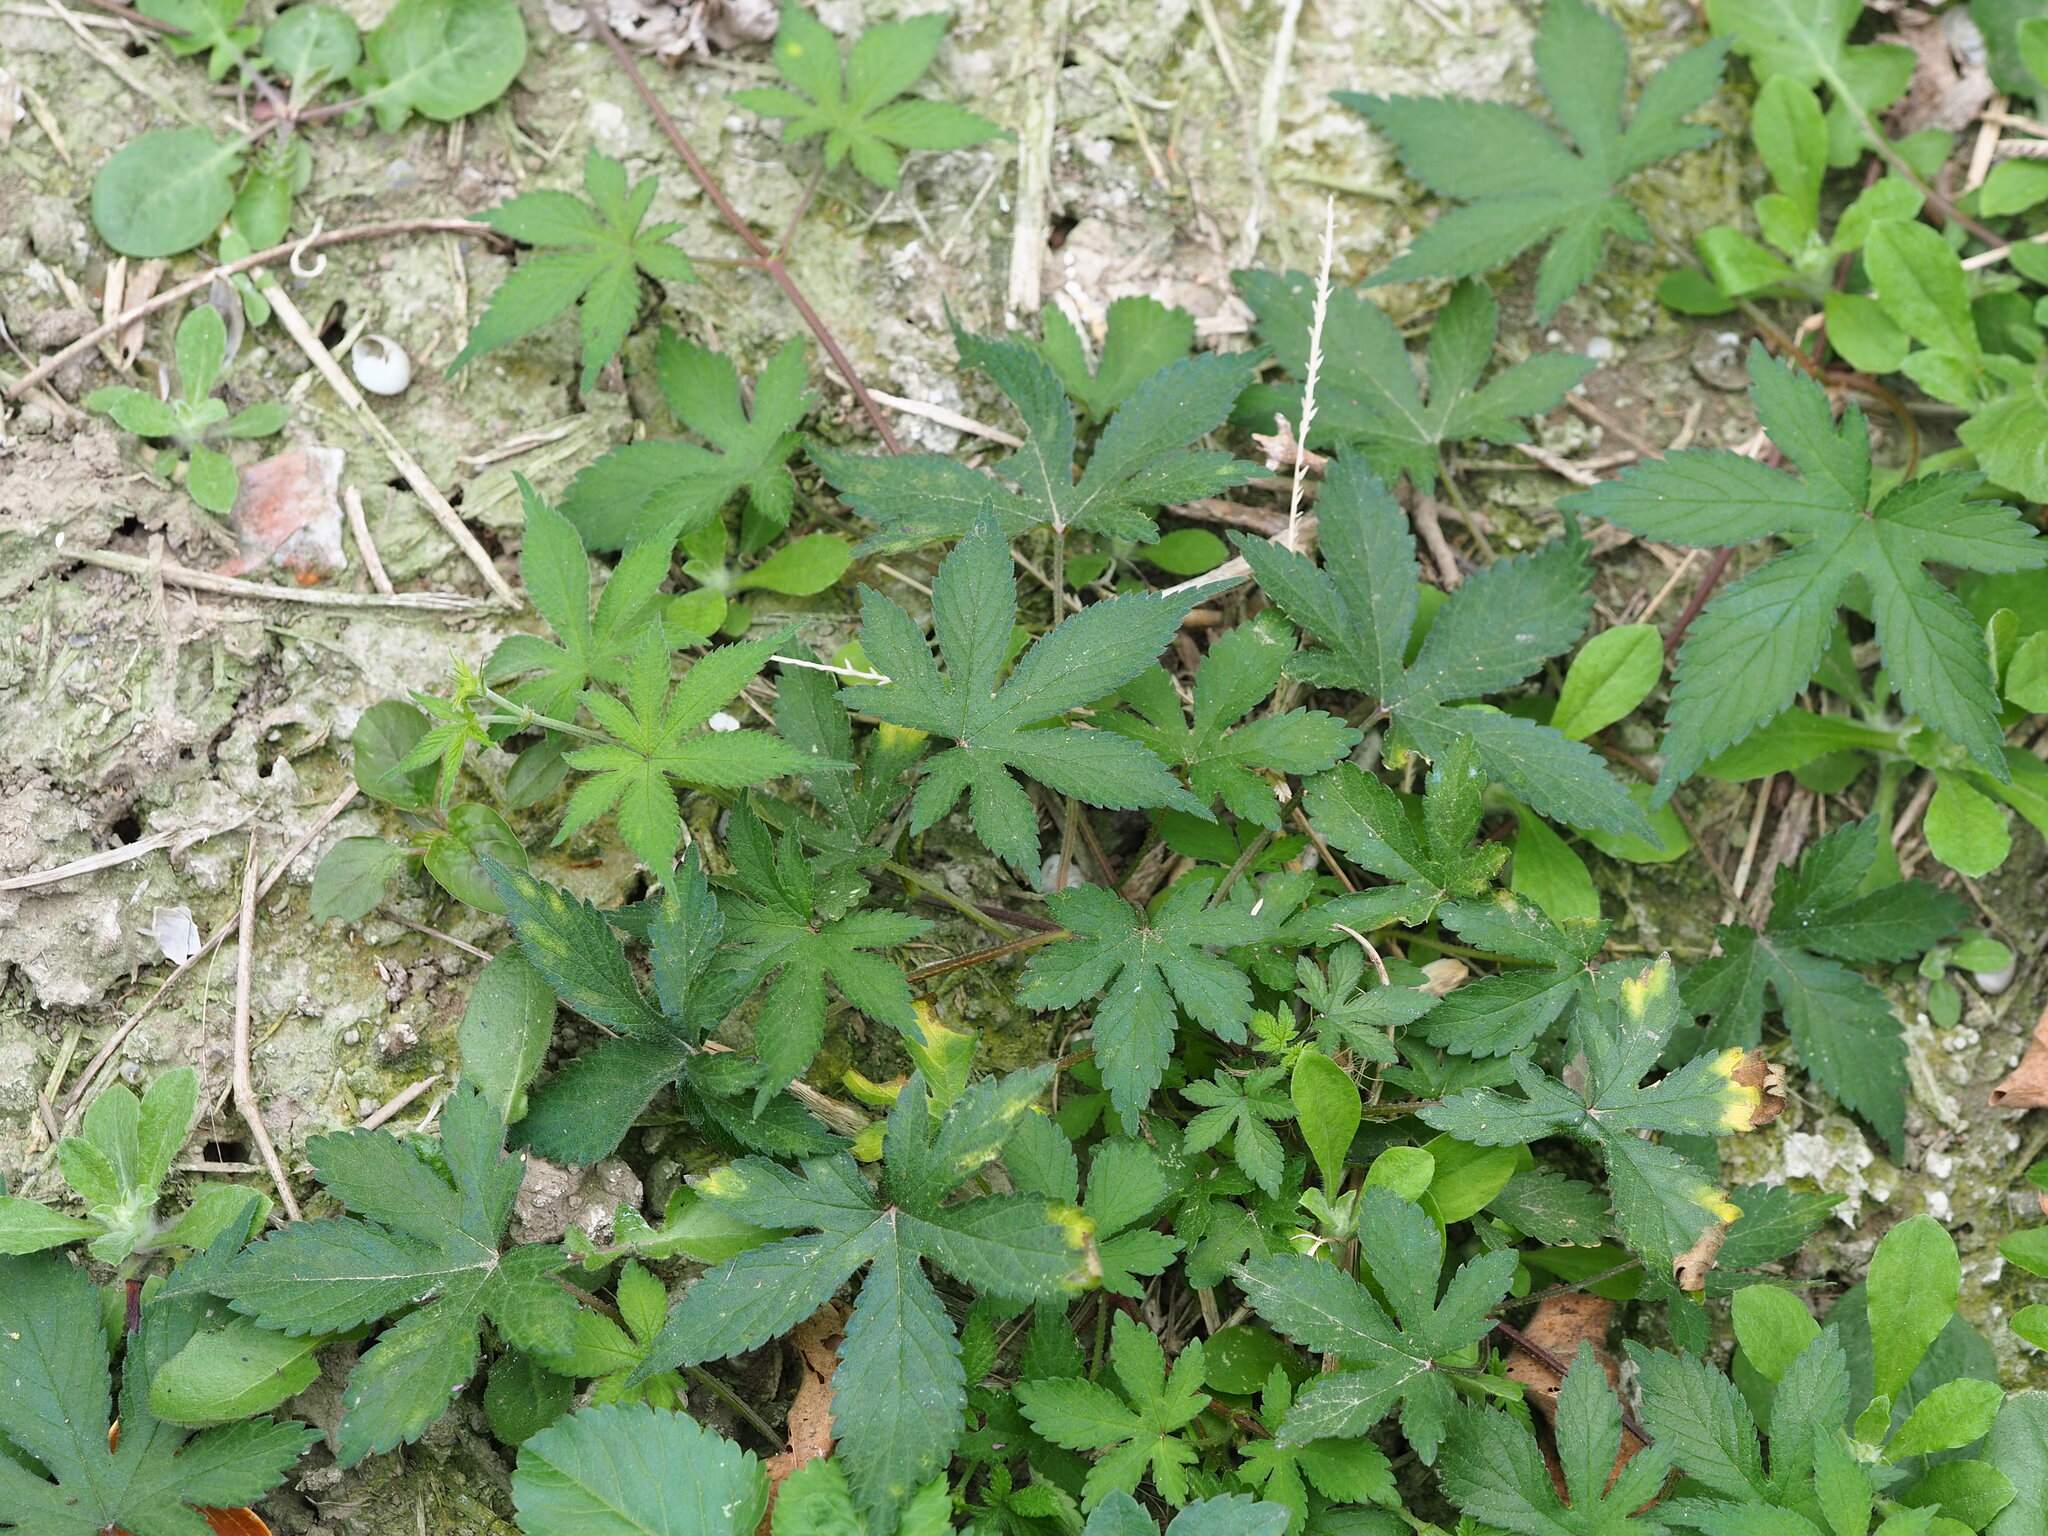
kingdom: Plantae
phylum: Tracheophyta
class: Magnoliopsida
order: Rosales
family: Cannabaceae
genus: Humulus
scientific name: Humulus scandens
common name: Japanese hop
